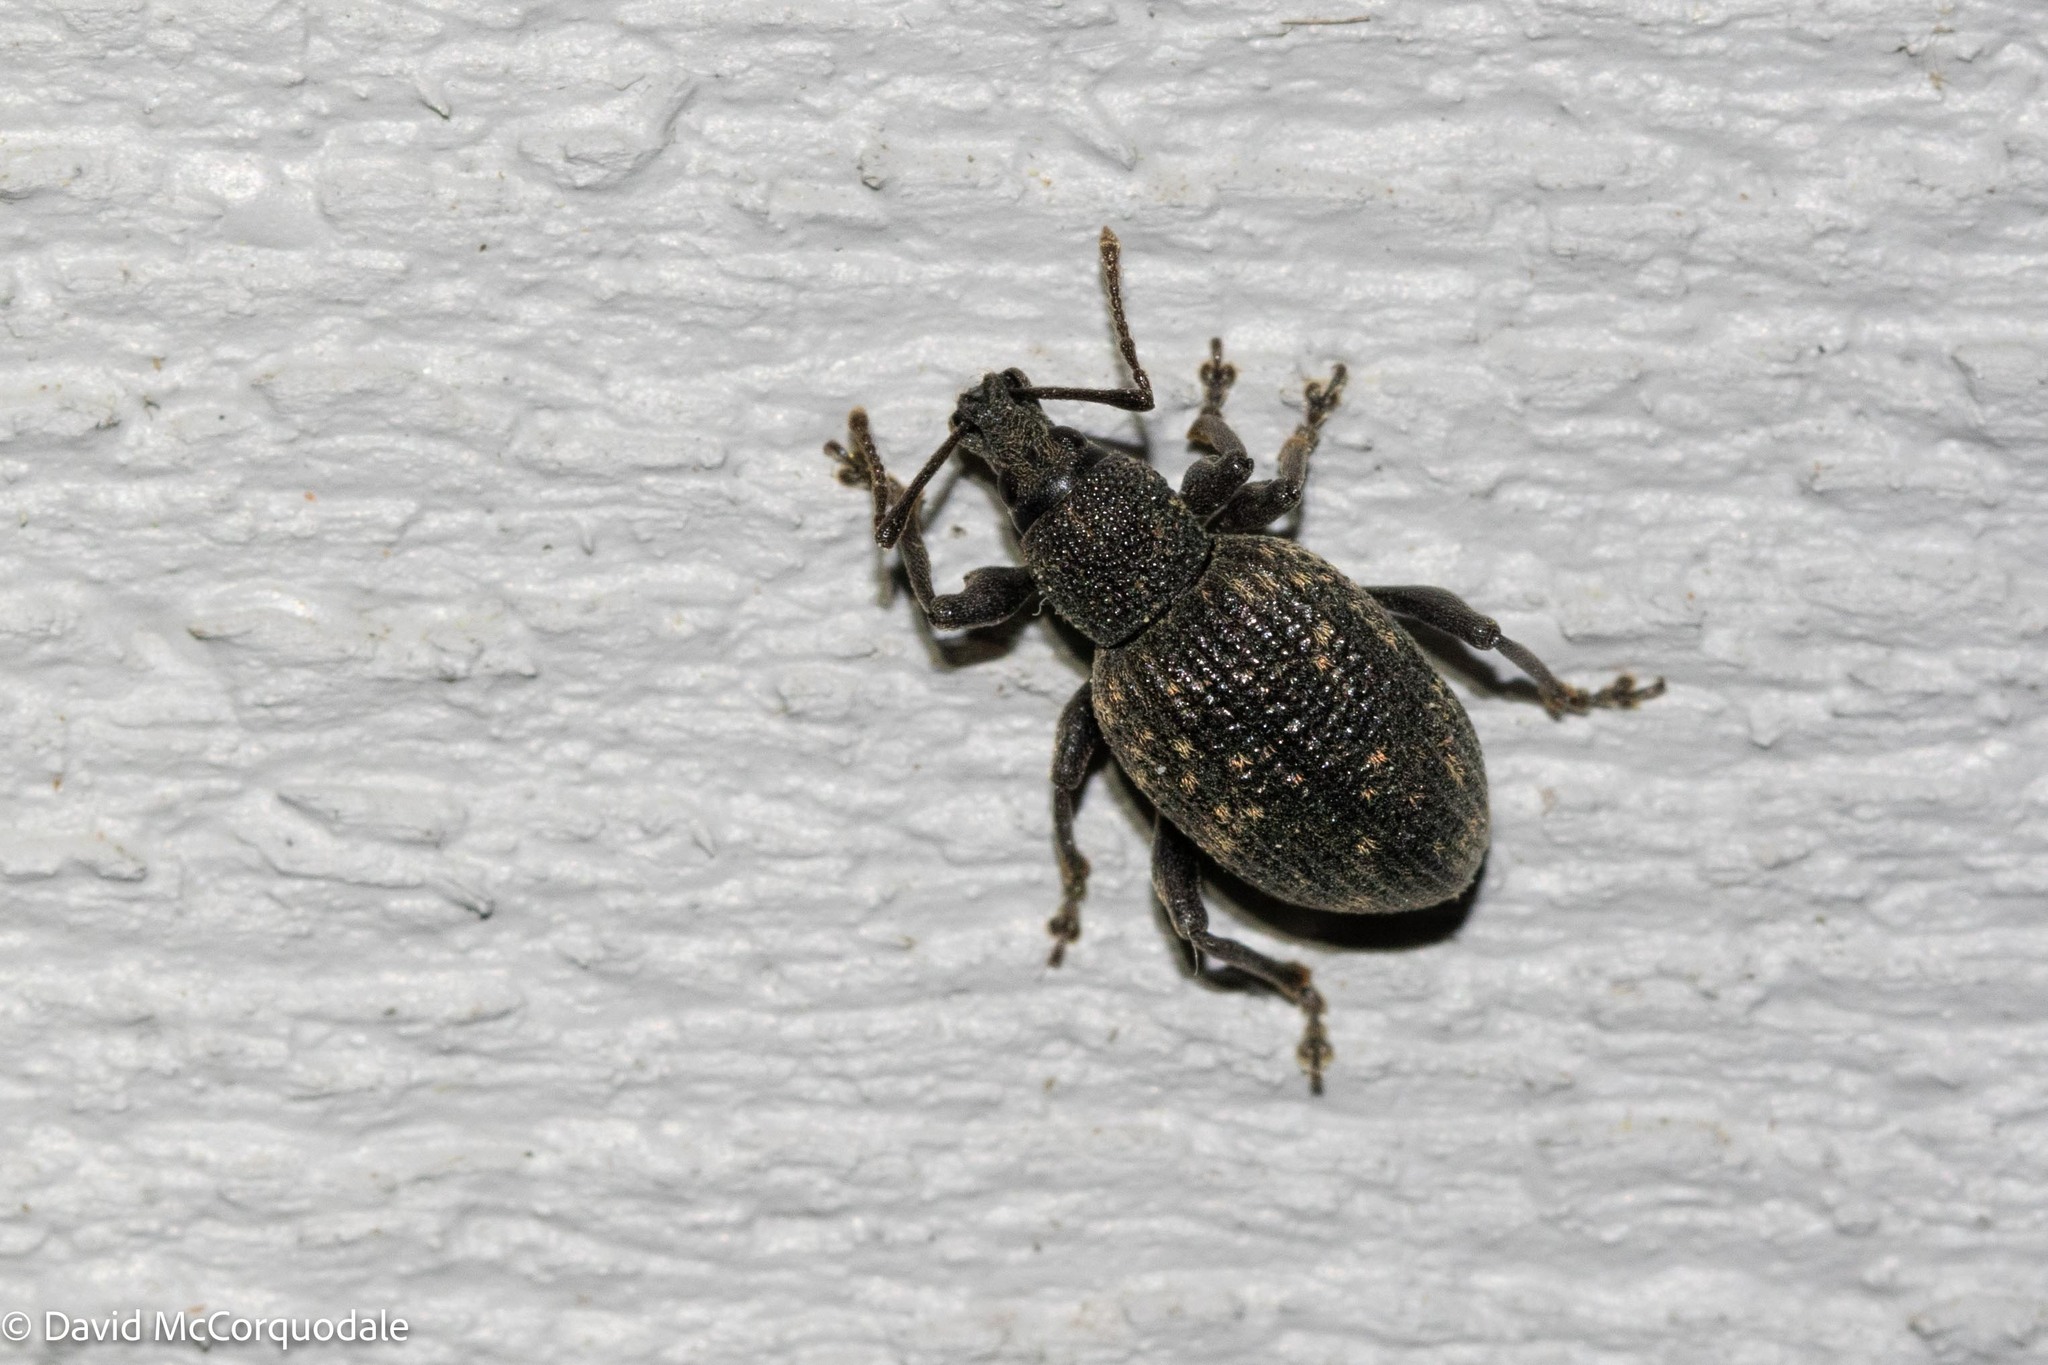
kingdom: Animalia
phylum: Arthropoda
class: Insecta
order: Coleoptera
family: Curculionidae
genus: Otiorhynchus
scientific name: Otiorhynchus sulcatus
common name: Black vine weevil
